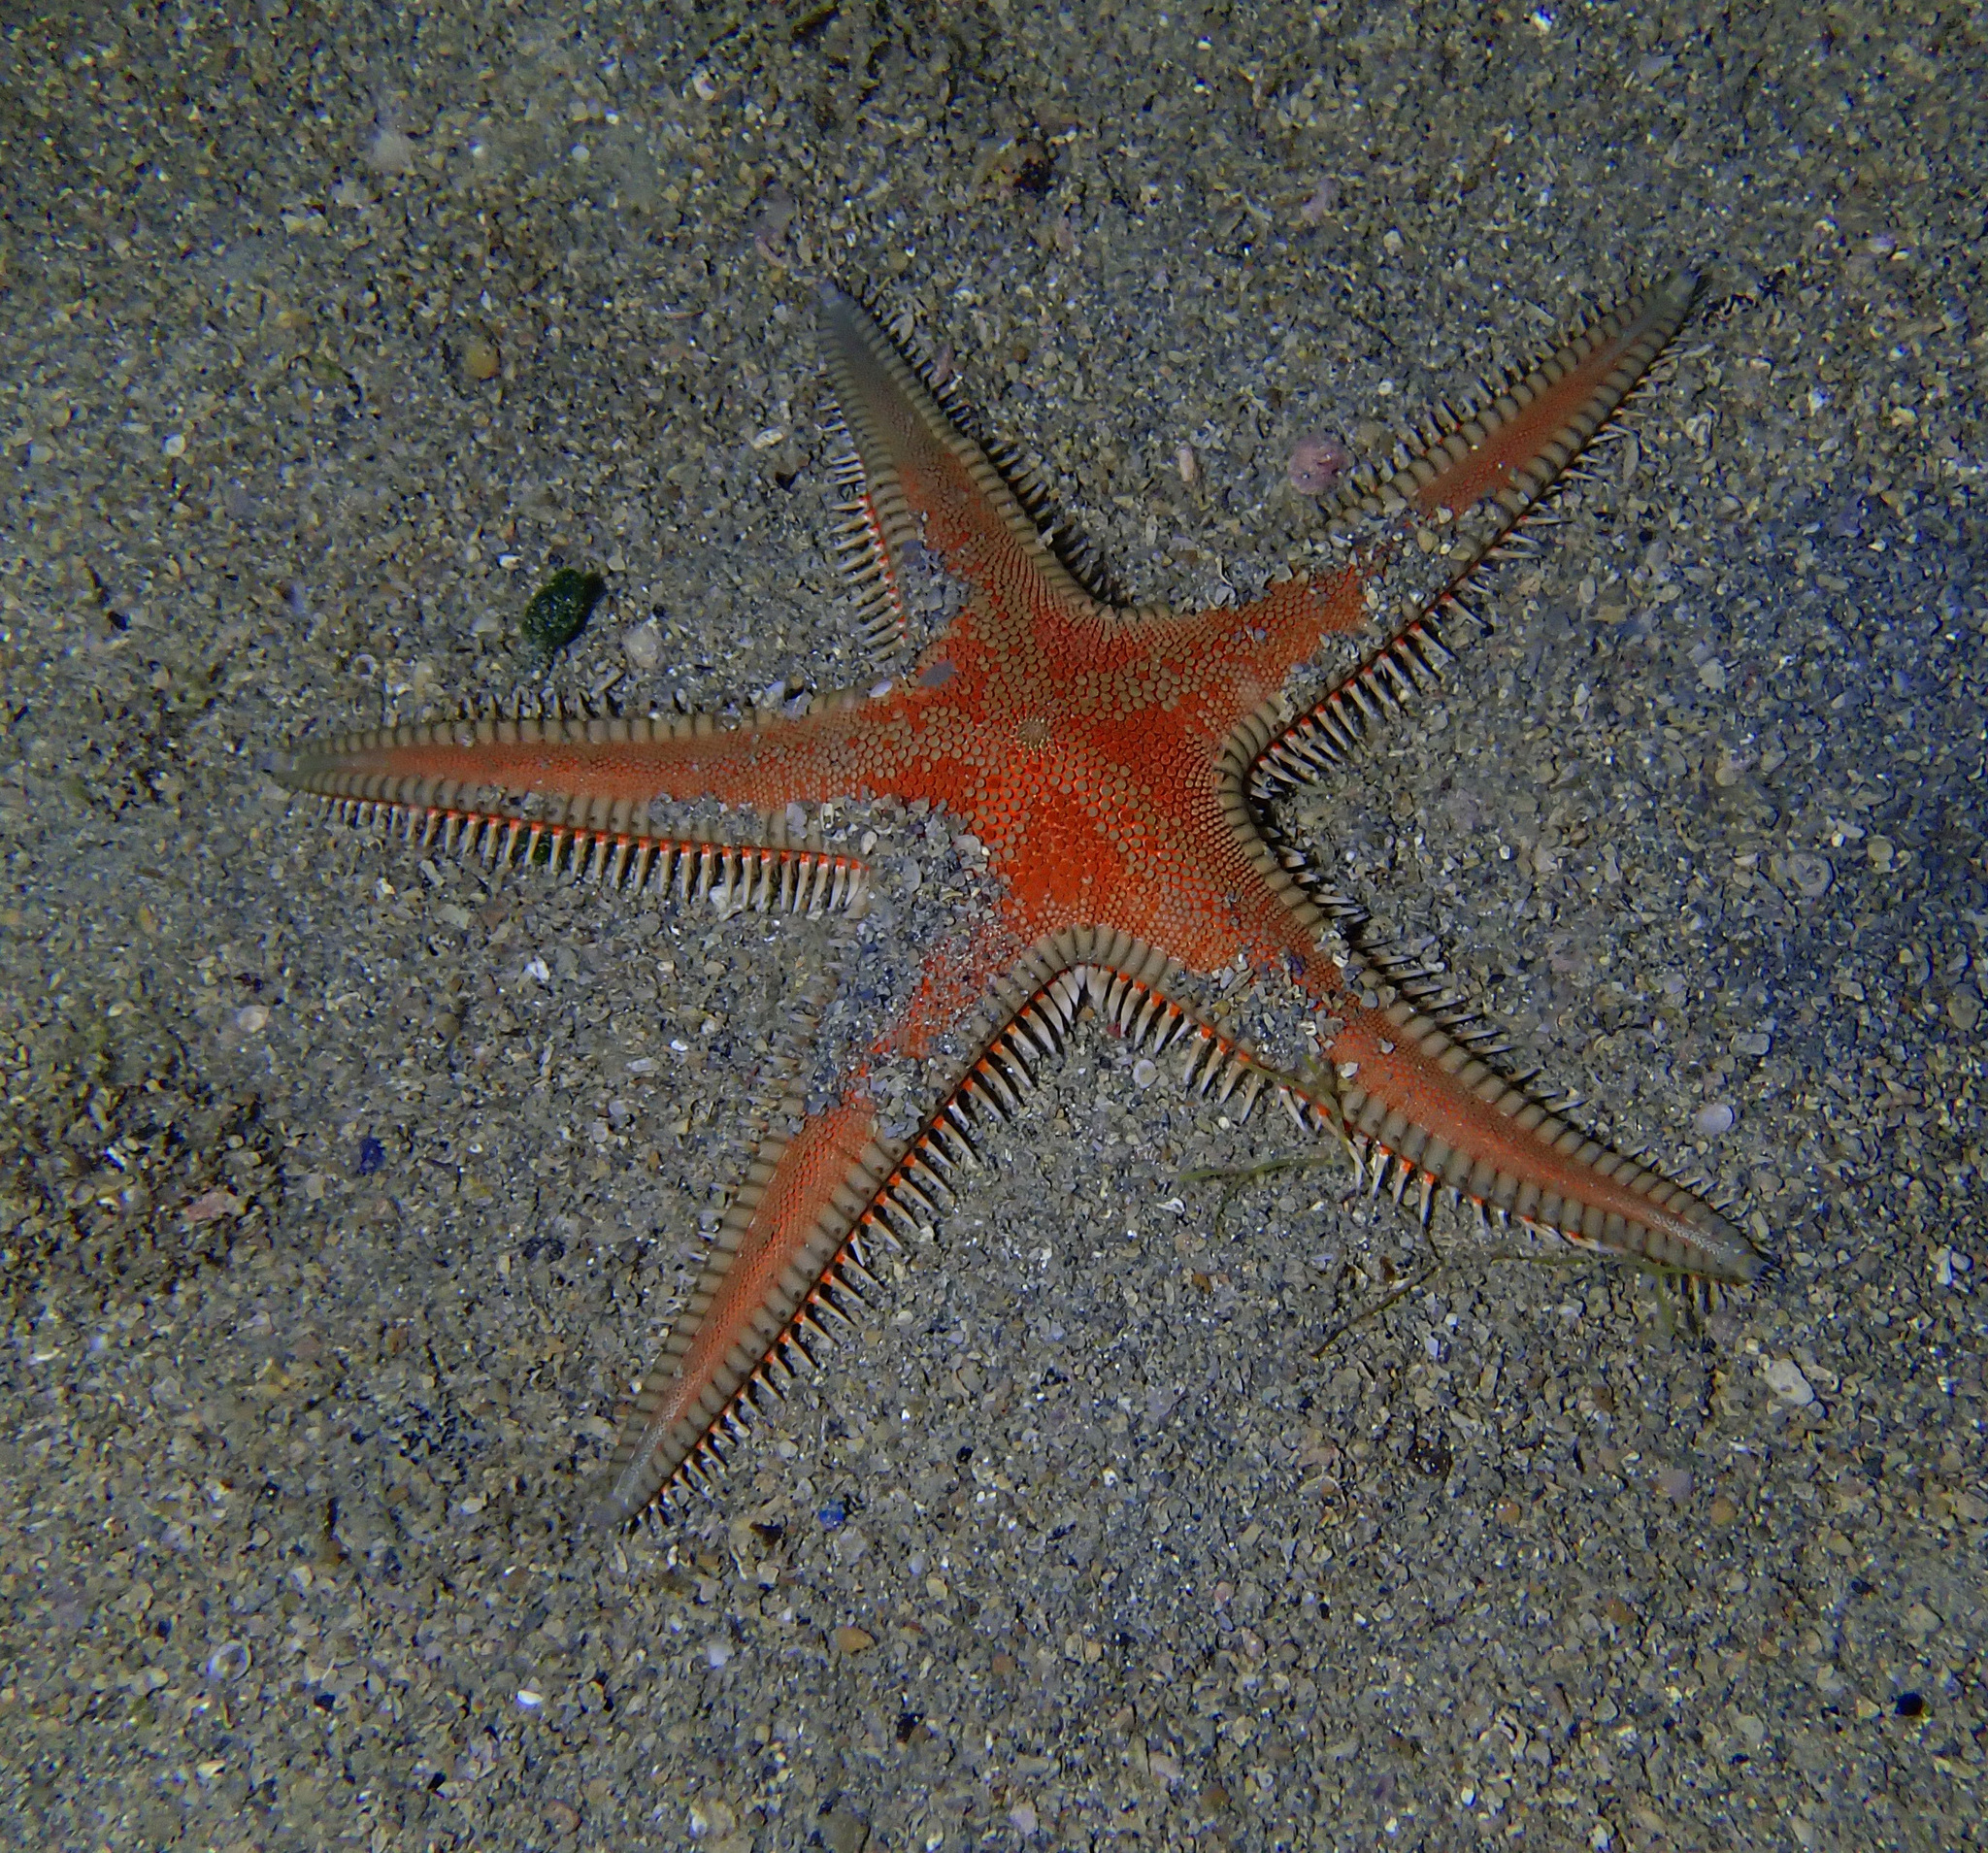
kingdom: Animalia
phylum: Echinodermata
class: Asteroidea
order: Paxillosida
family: Astropectinidae
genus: Astropecten
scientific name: Astropecten aranciacus
